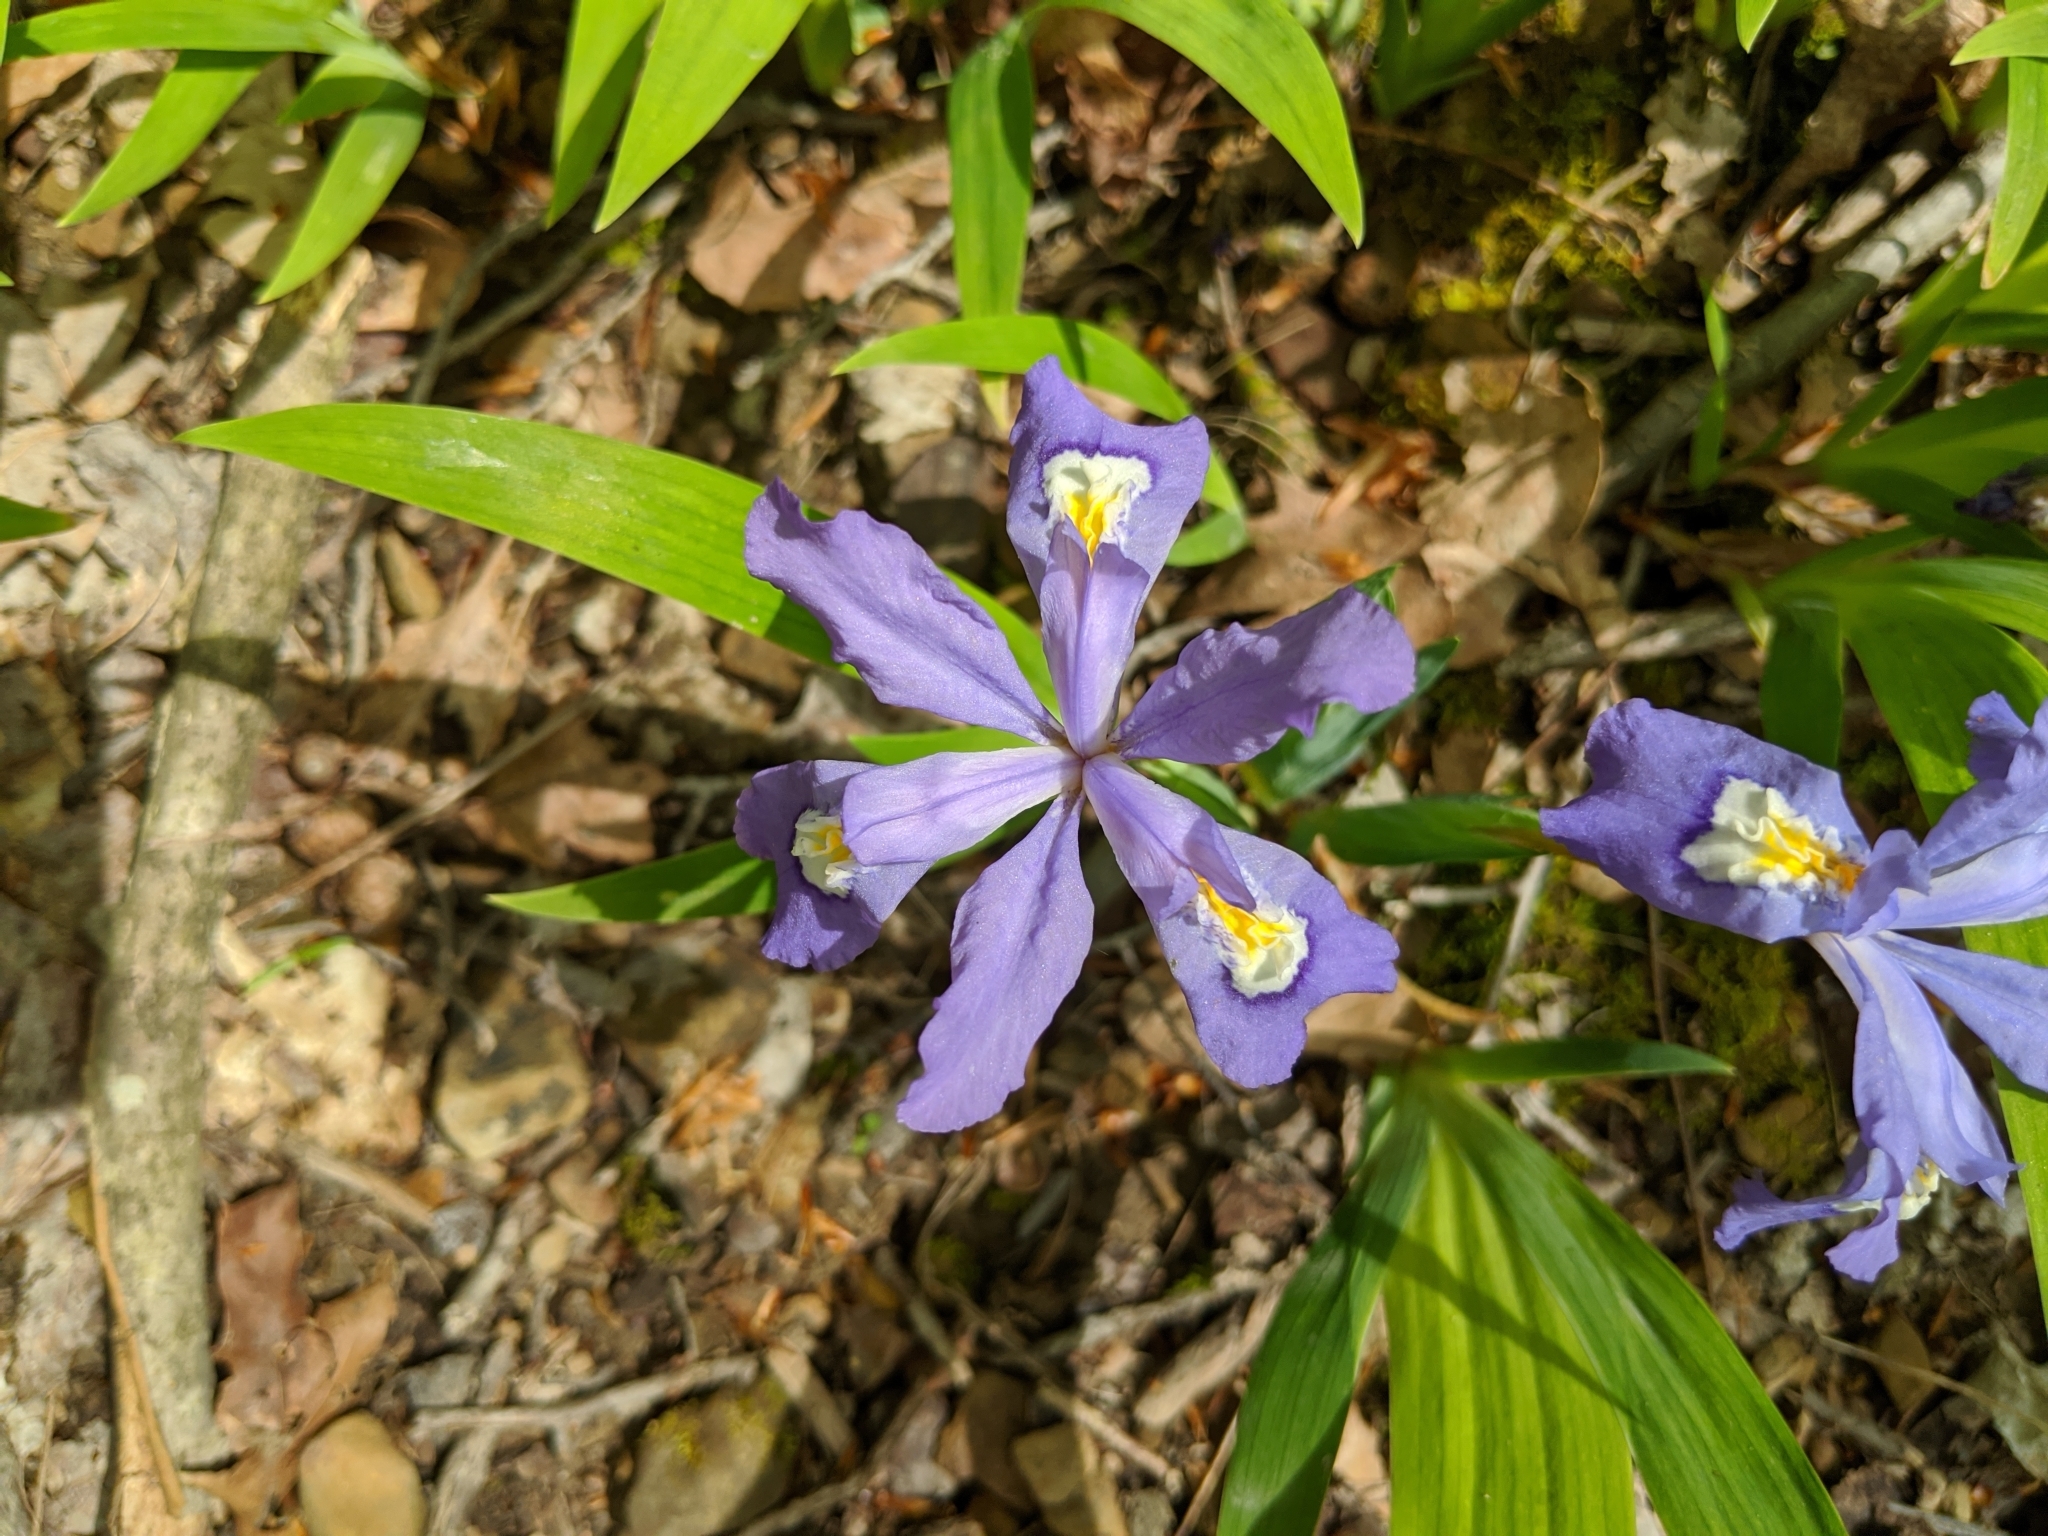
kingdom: Plantae
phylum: Tracheophyta
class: Liliopsida
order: Asparagales
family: Iridaceae
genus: Iris
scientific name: Iris cristata
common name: Crested iris
